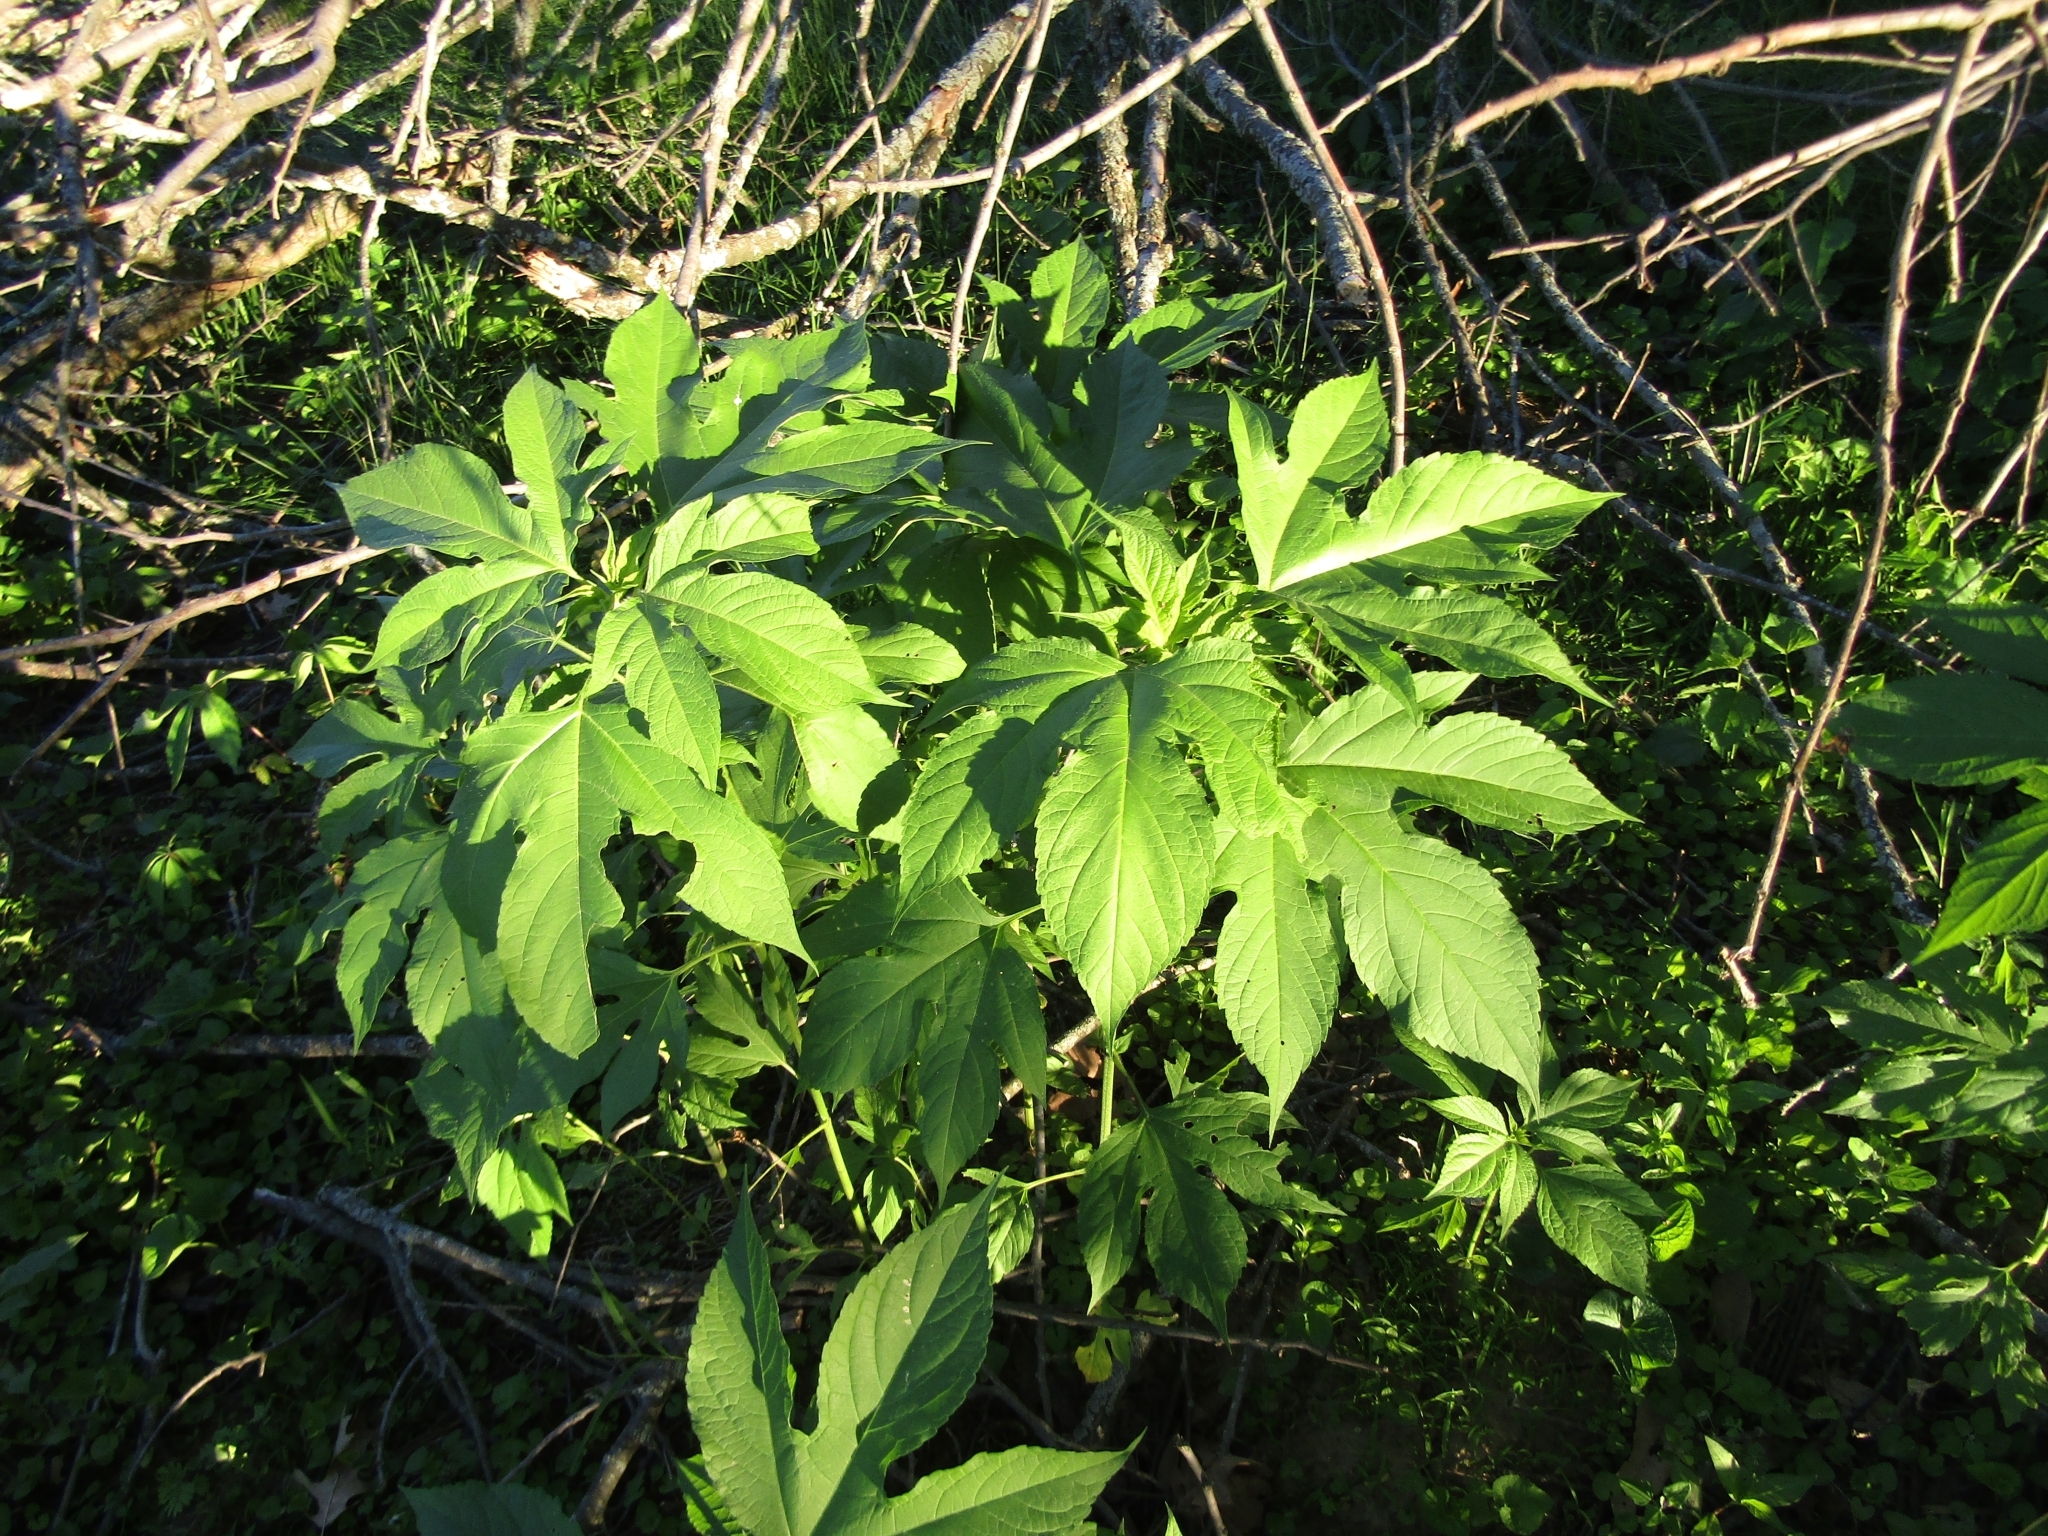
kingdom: Plantae
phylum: Tracheophyta
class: Magnoliopsida
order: Asterales
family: Asteraceae
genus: Ambrosia
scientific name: Ambrosia trifida
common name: Giant ragweed
